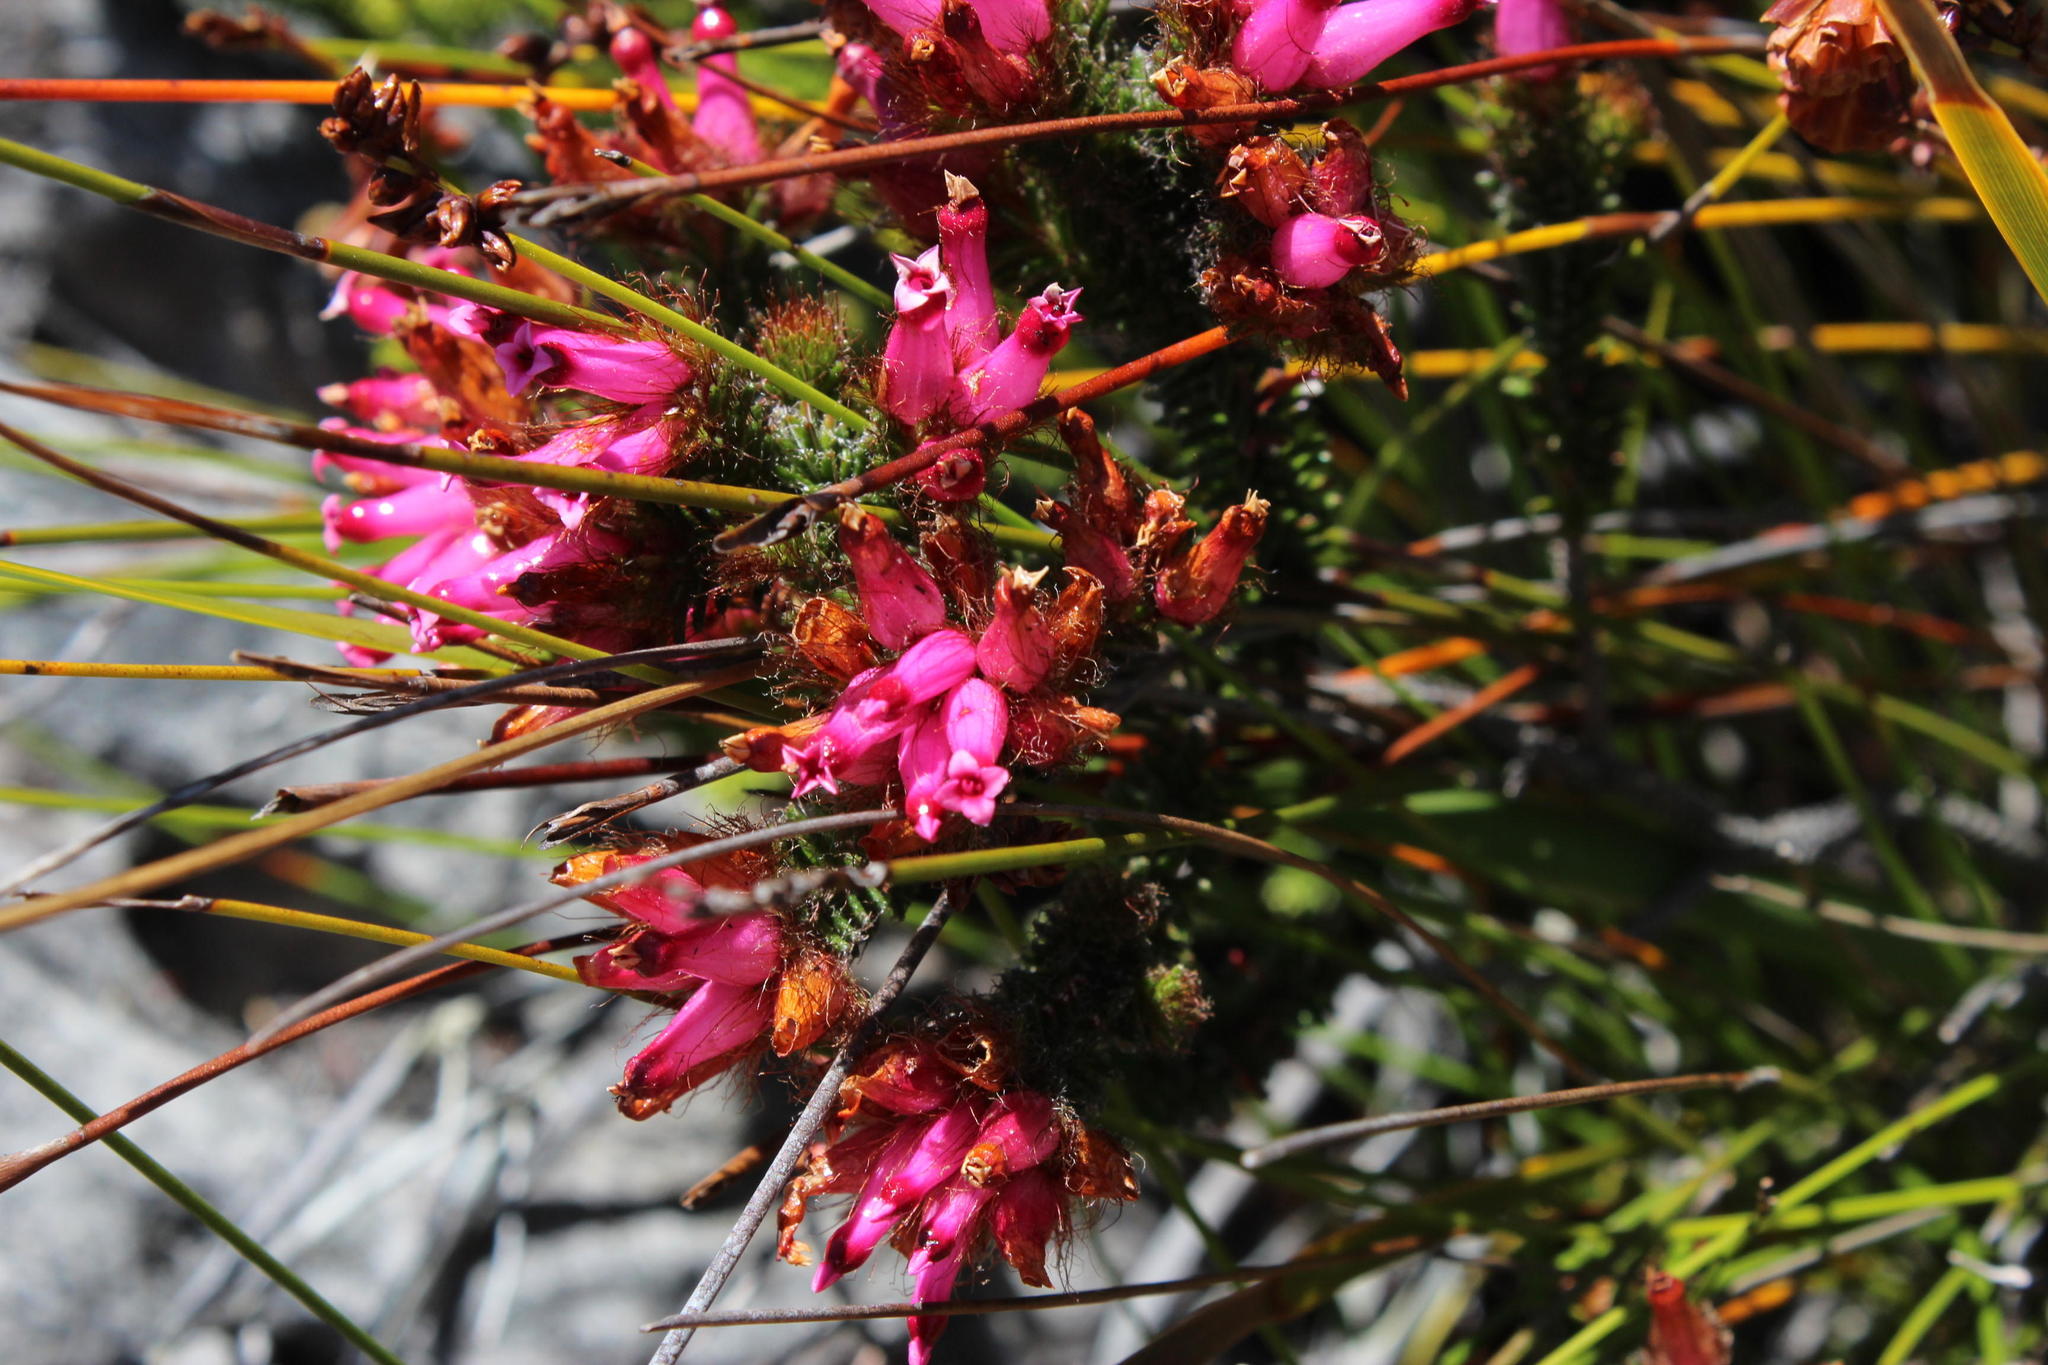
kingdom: Plantae
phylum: Tracheophyta
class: Magnoliopsida
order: Ericales
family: Ericaceae
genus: Erica
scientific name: Erica gysbertii
